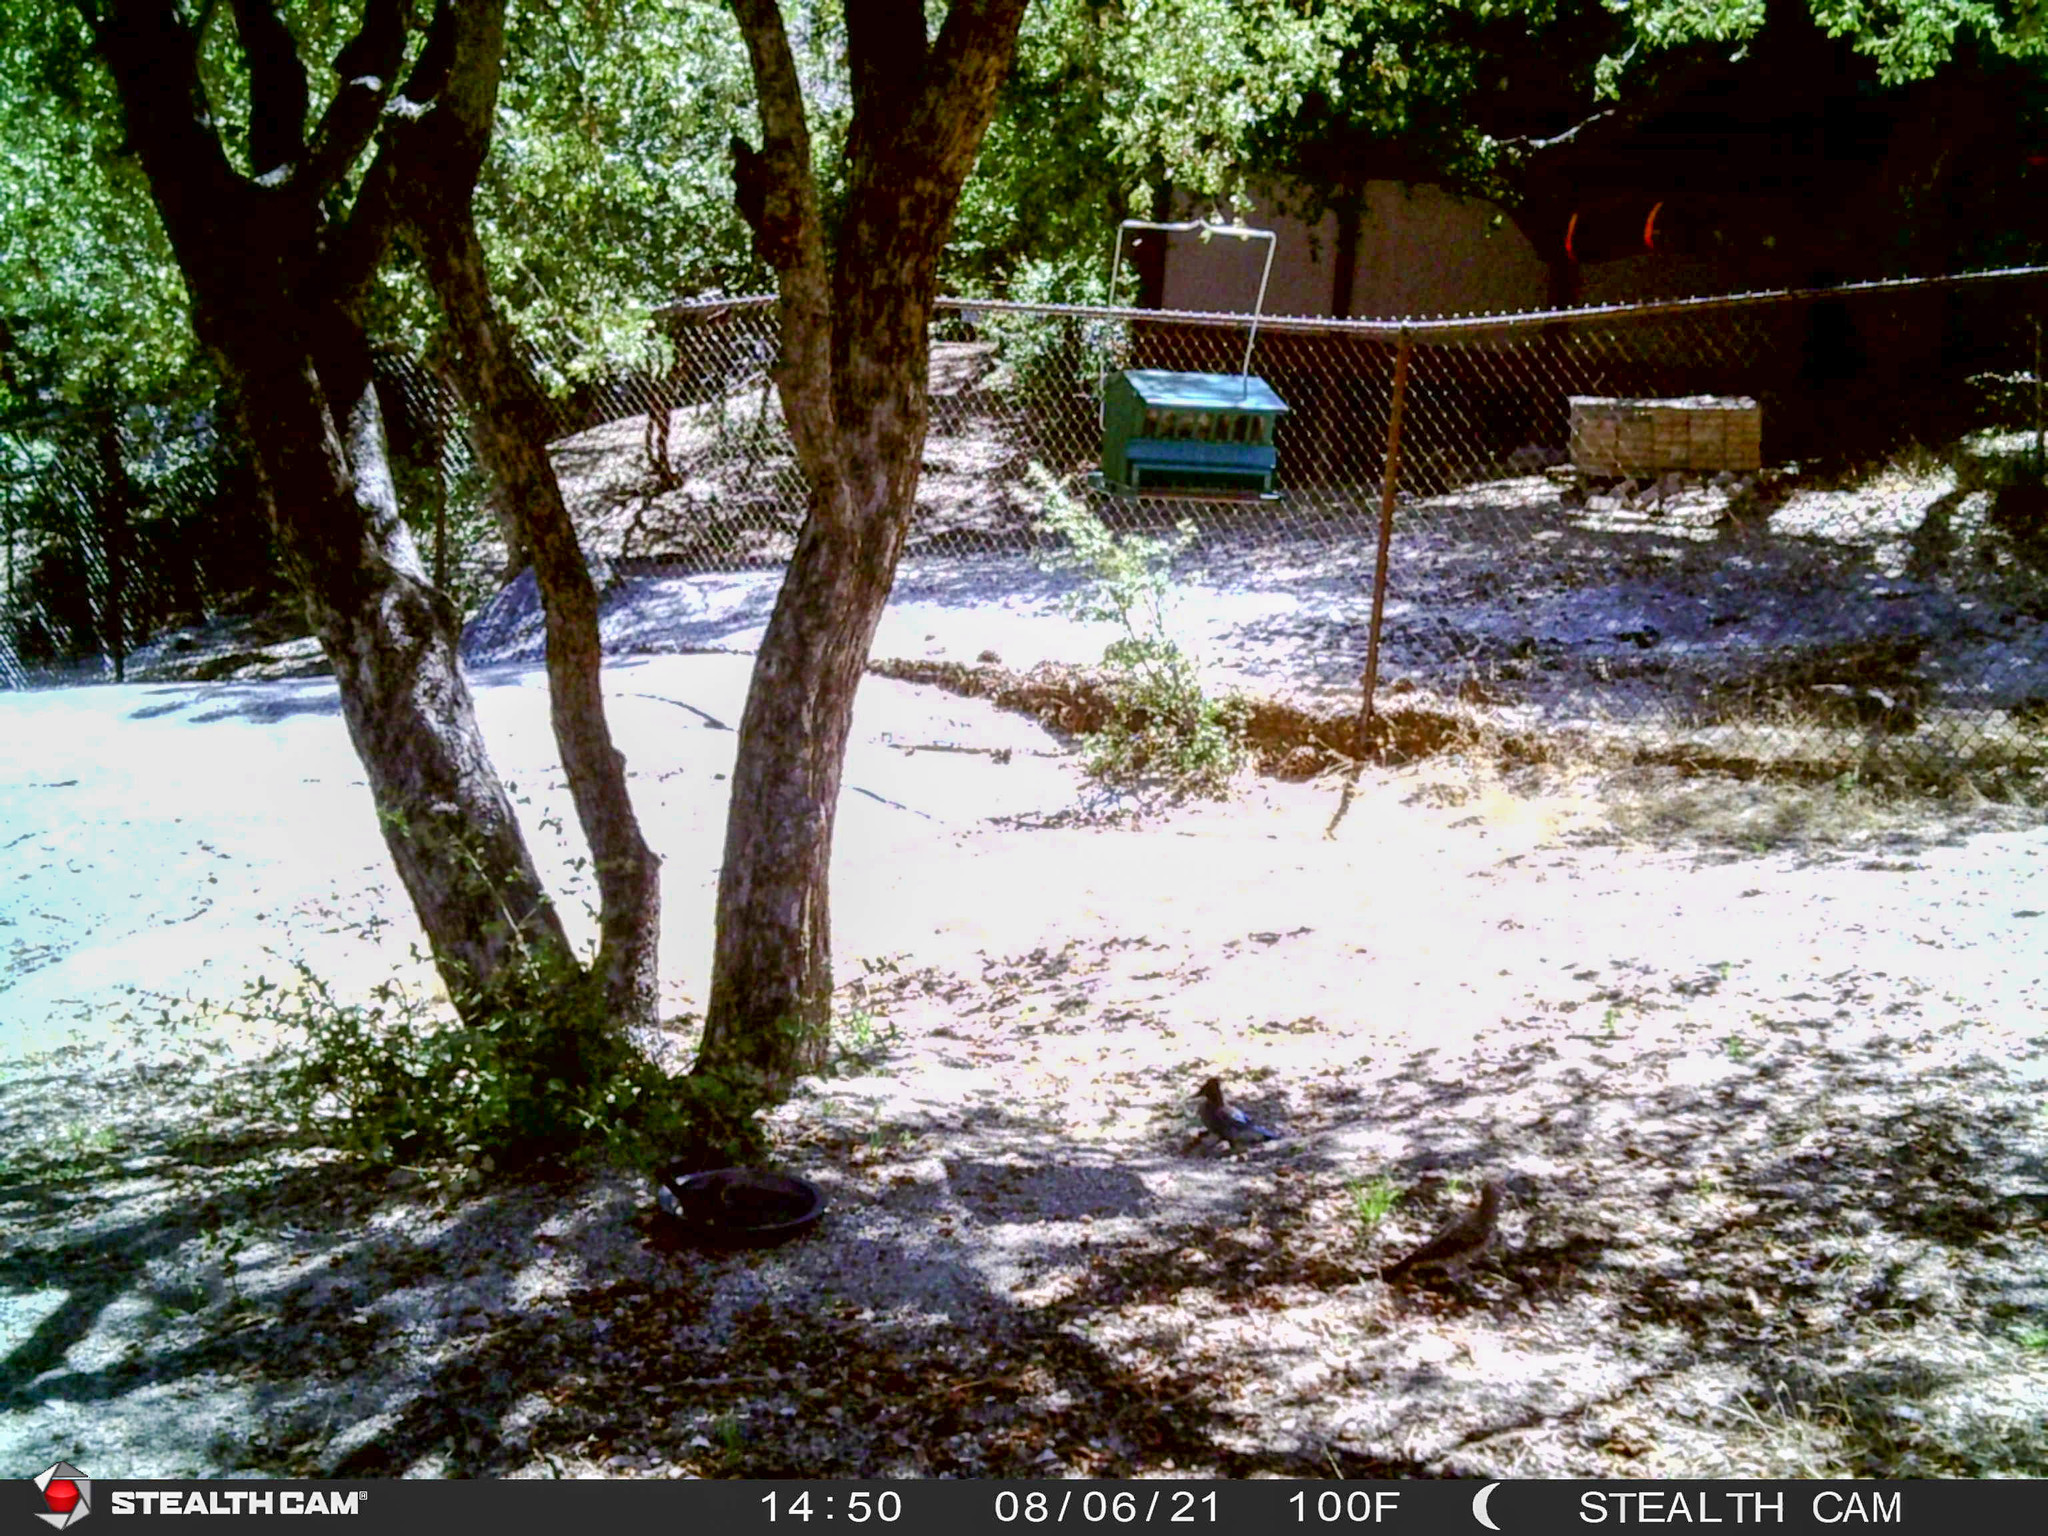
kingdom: Animalia
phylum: Chordata
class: Aves
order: Piciformes
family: Picidae
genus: Colaptes
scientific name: Colaptes auratus
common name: Northern flicker
